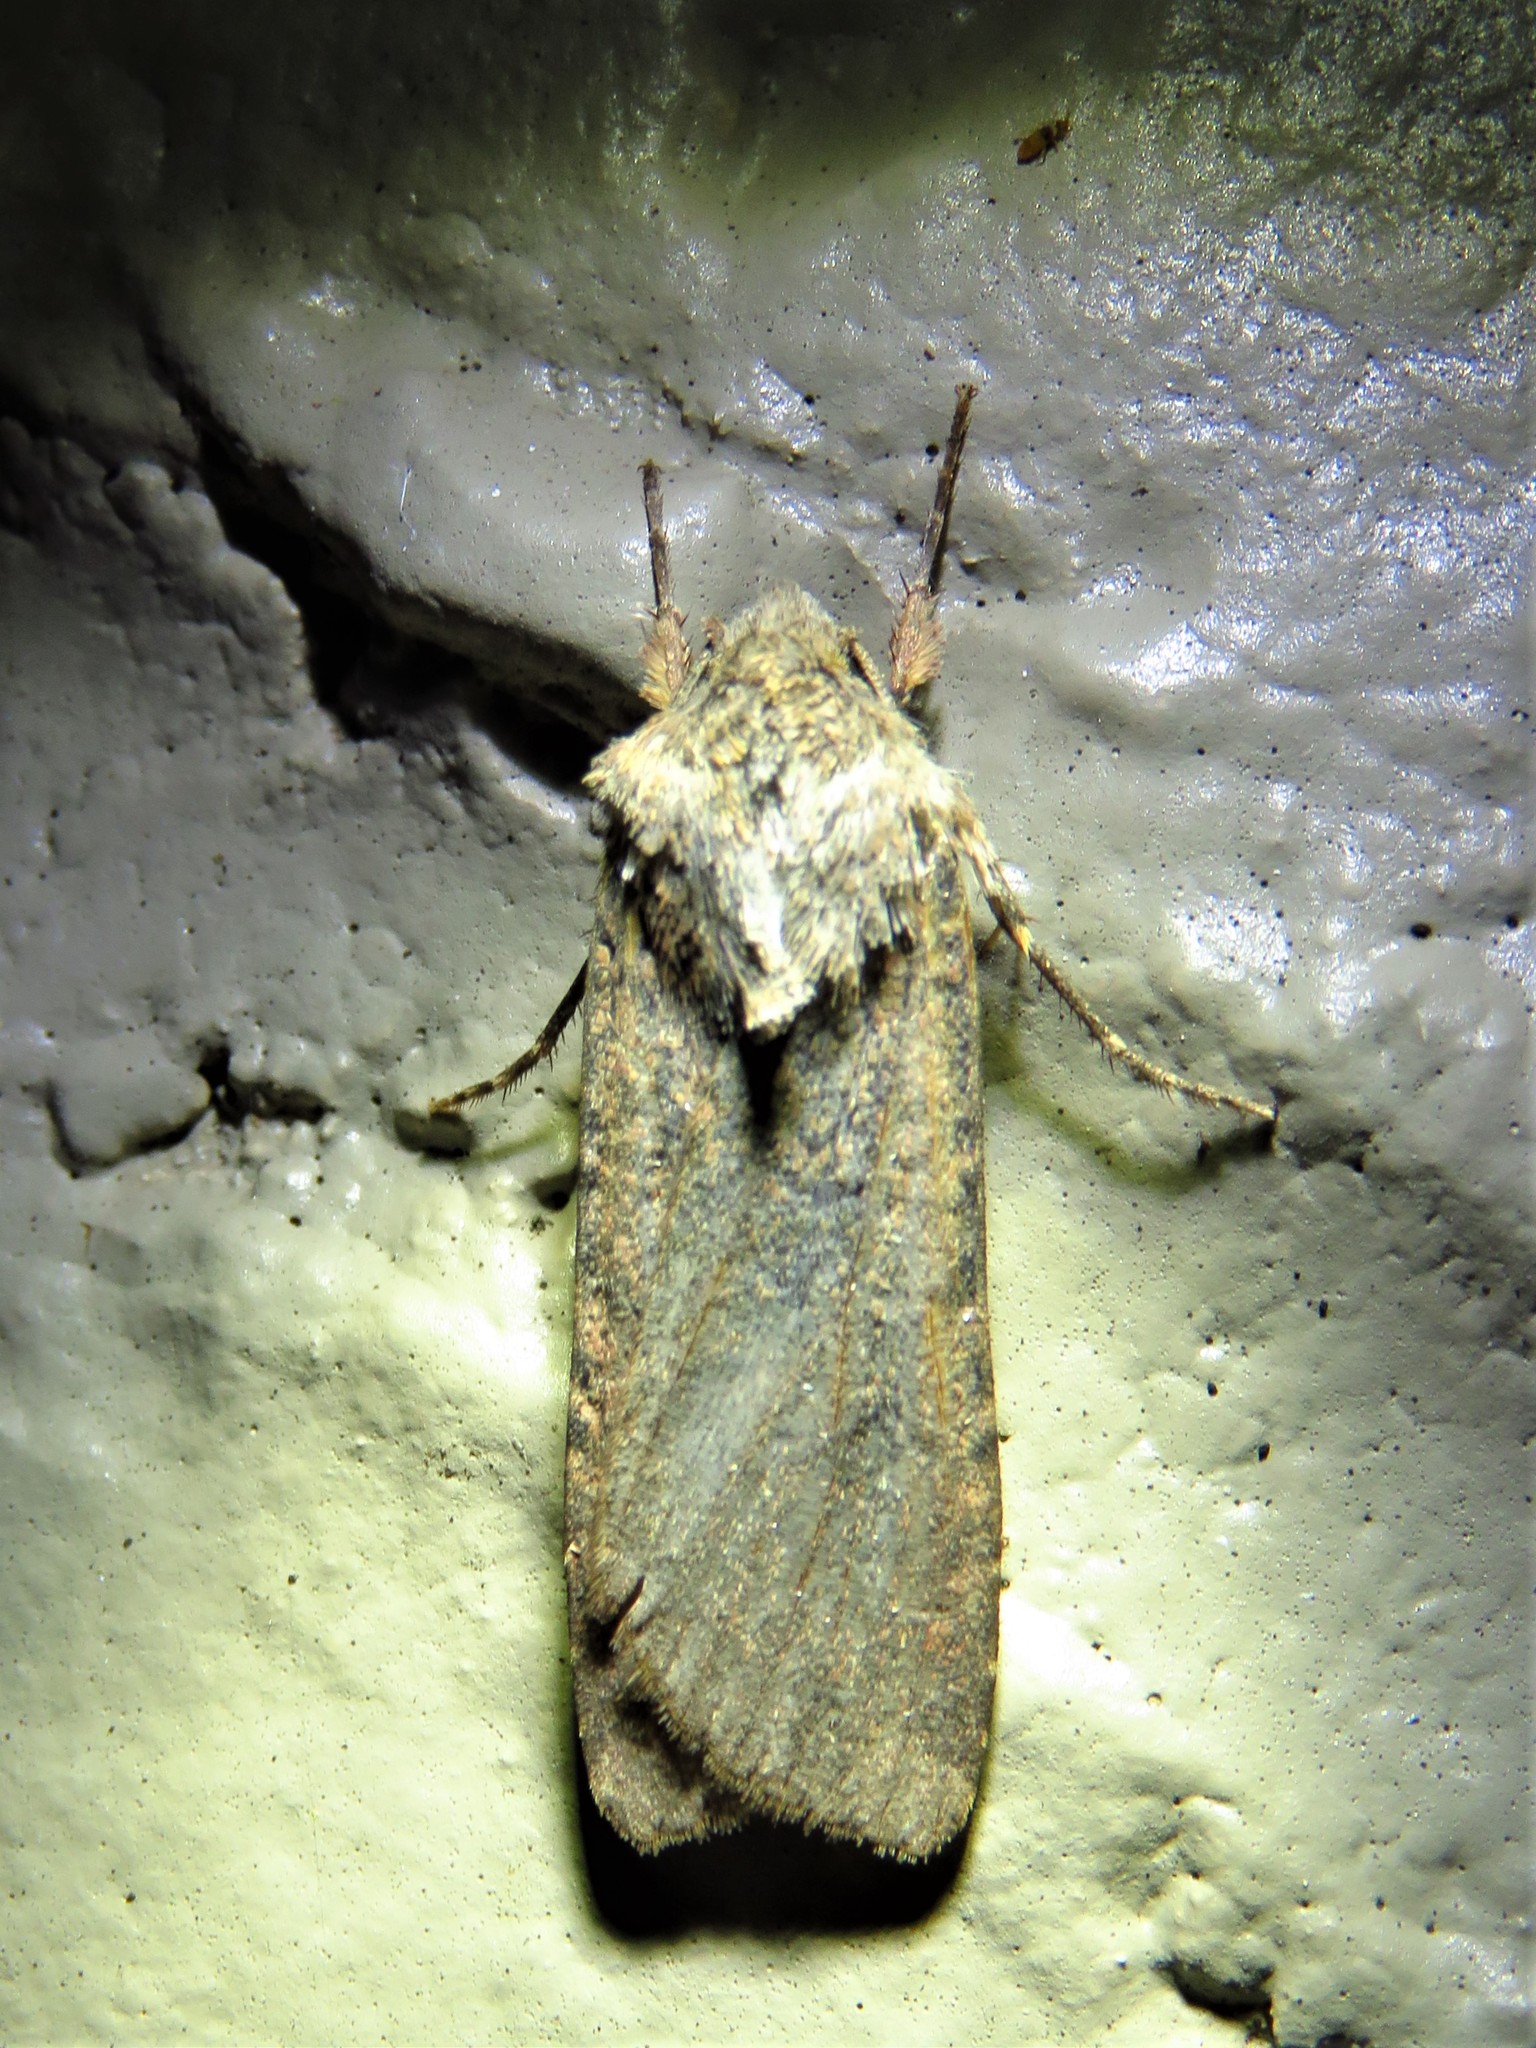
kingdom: Animalia
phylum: Arthropoda
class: Insecta
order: Lepidoptera
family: Noctuidae
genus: Peridroma
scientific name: Peridroma saucia
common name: Pearly underwing
